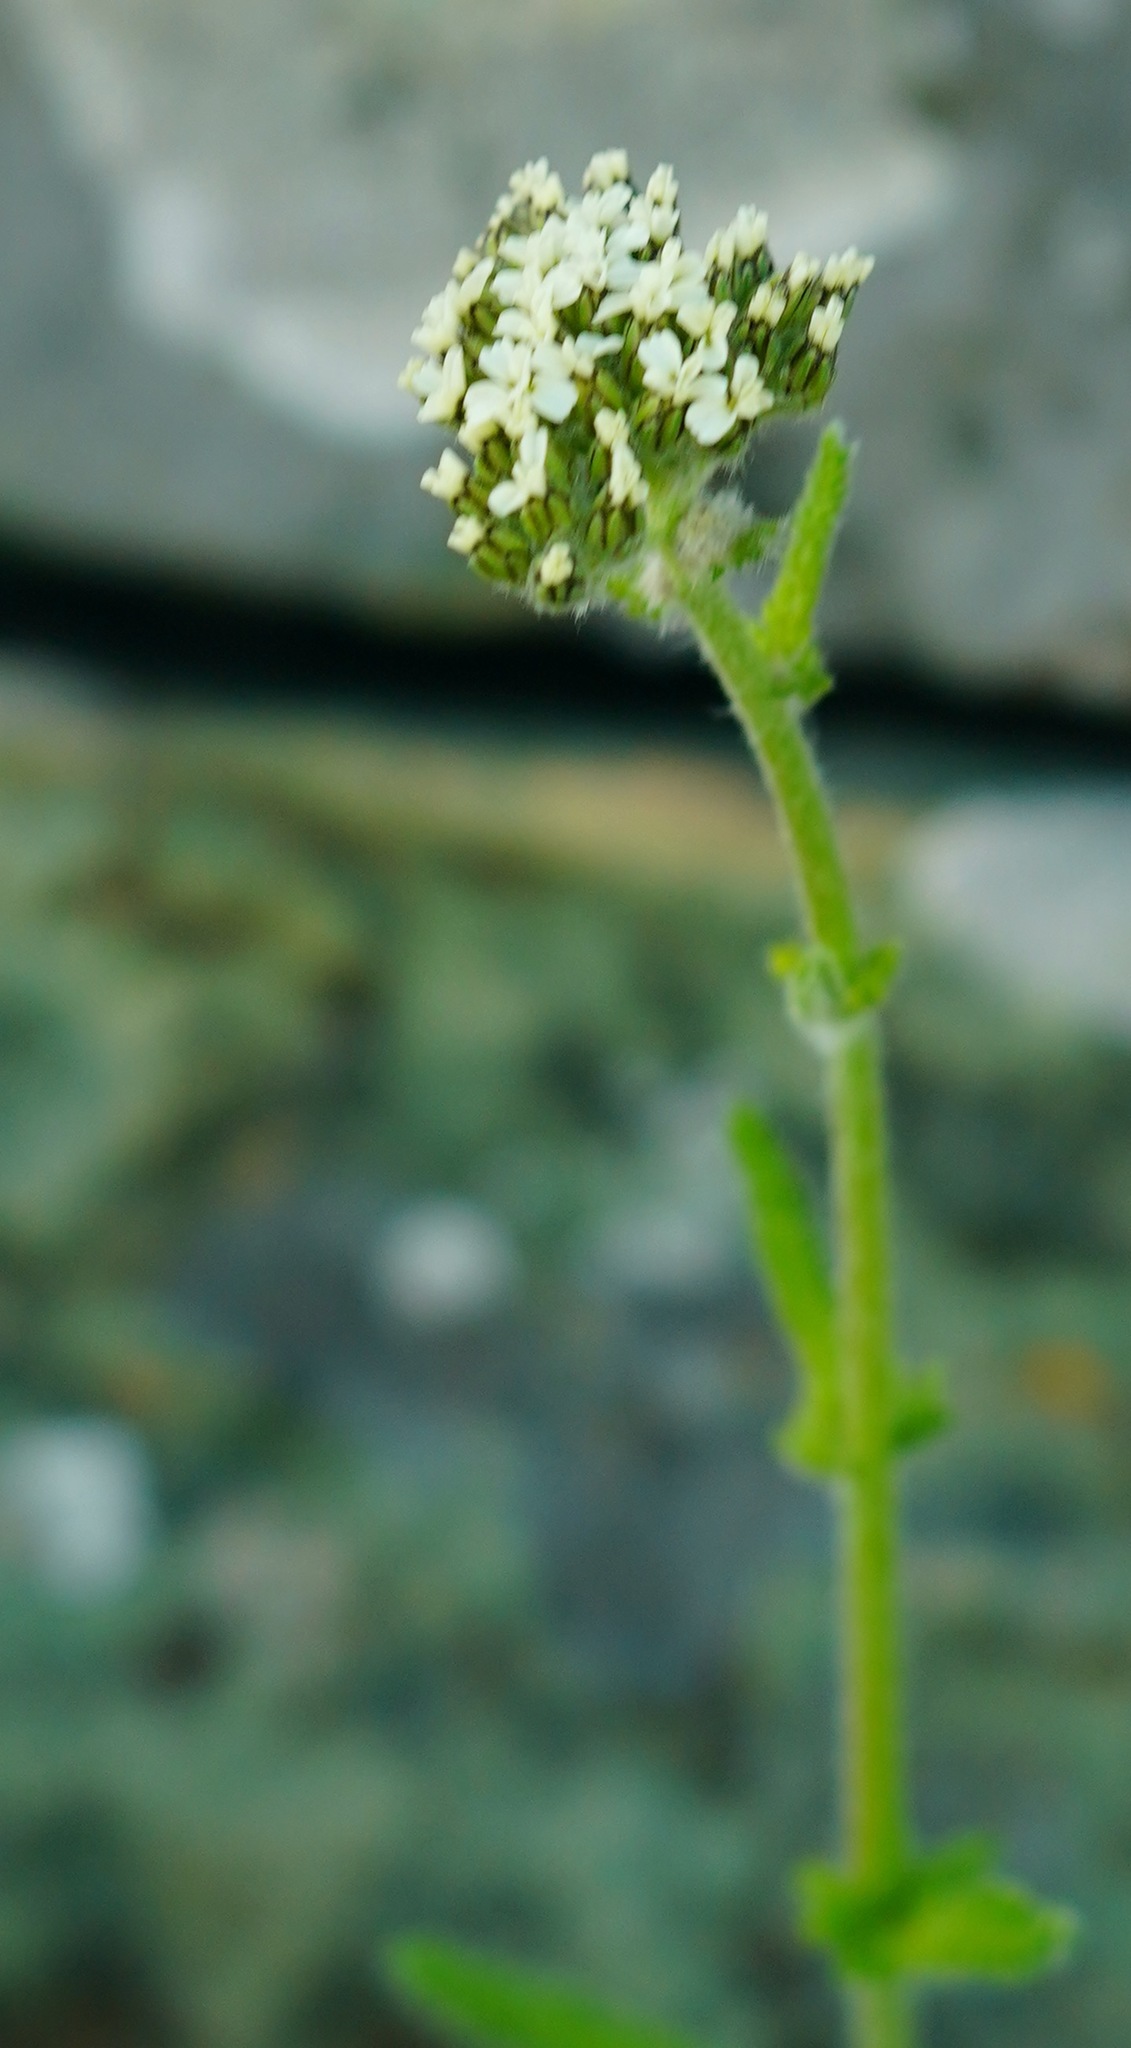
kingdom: Plantae
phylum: Tracheophyta
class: Magnoliopsida
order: Asterales
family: Asteraceae
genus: Achillea
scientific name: Achillea millefolium
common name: Yarrow
